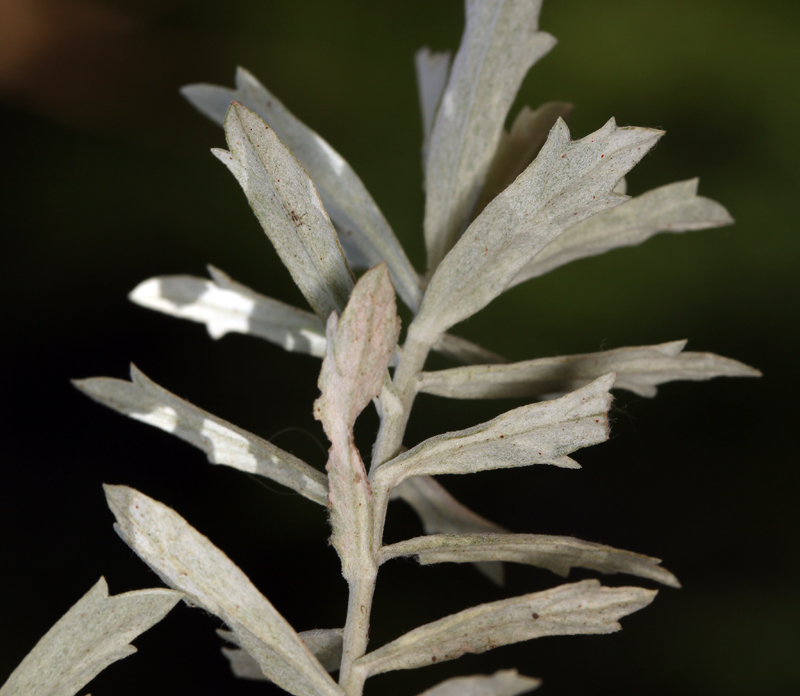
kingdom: Plantae
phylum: Tracheophyta
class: Magnoliopsida
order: Asterales
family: Asteraceae
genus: Artemisia
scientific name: Artemisia ludoviciana
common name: Western mugwort
